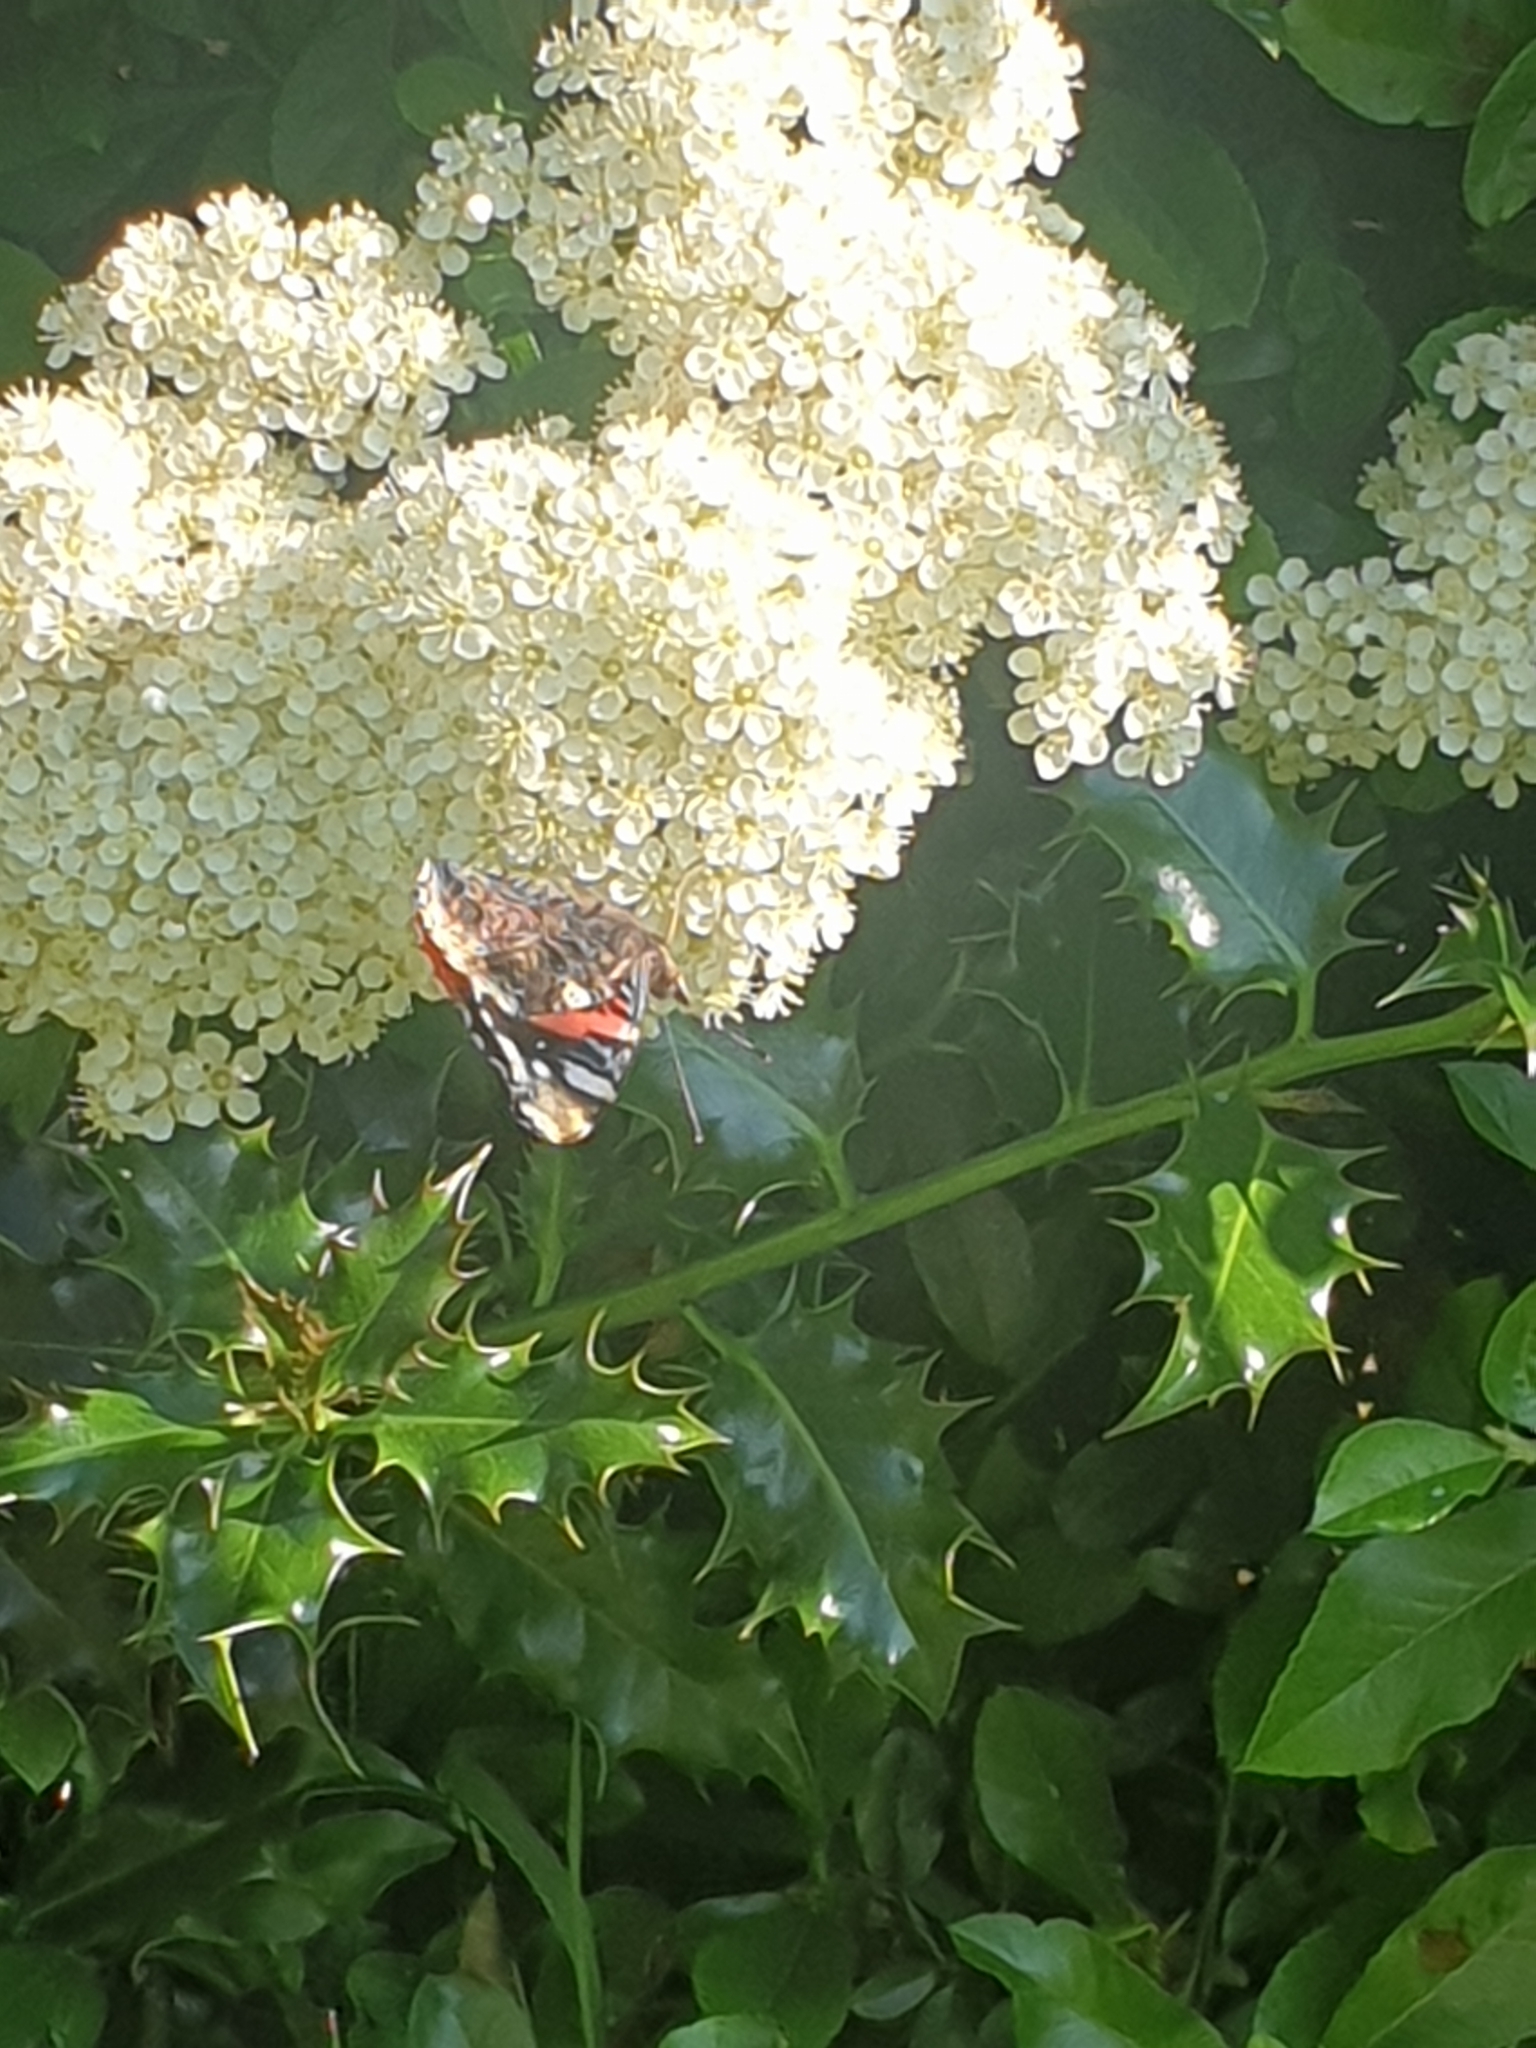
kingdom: Animalia
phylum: Arthropoda
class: Insecta
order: Lepidoptera
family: Nymphalidae
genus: Vanessa
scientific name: Vanessa atalanta
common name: Red admiral
